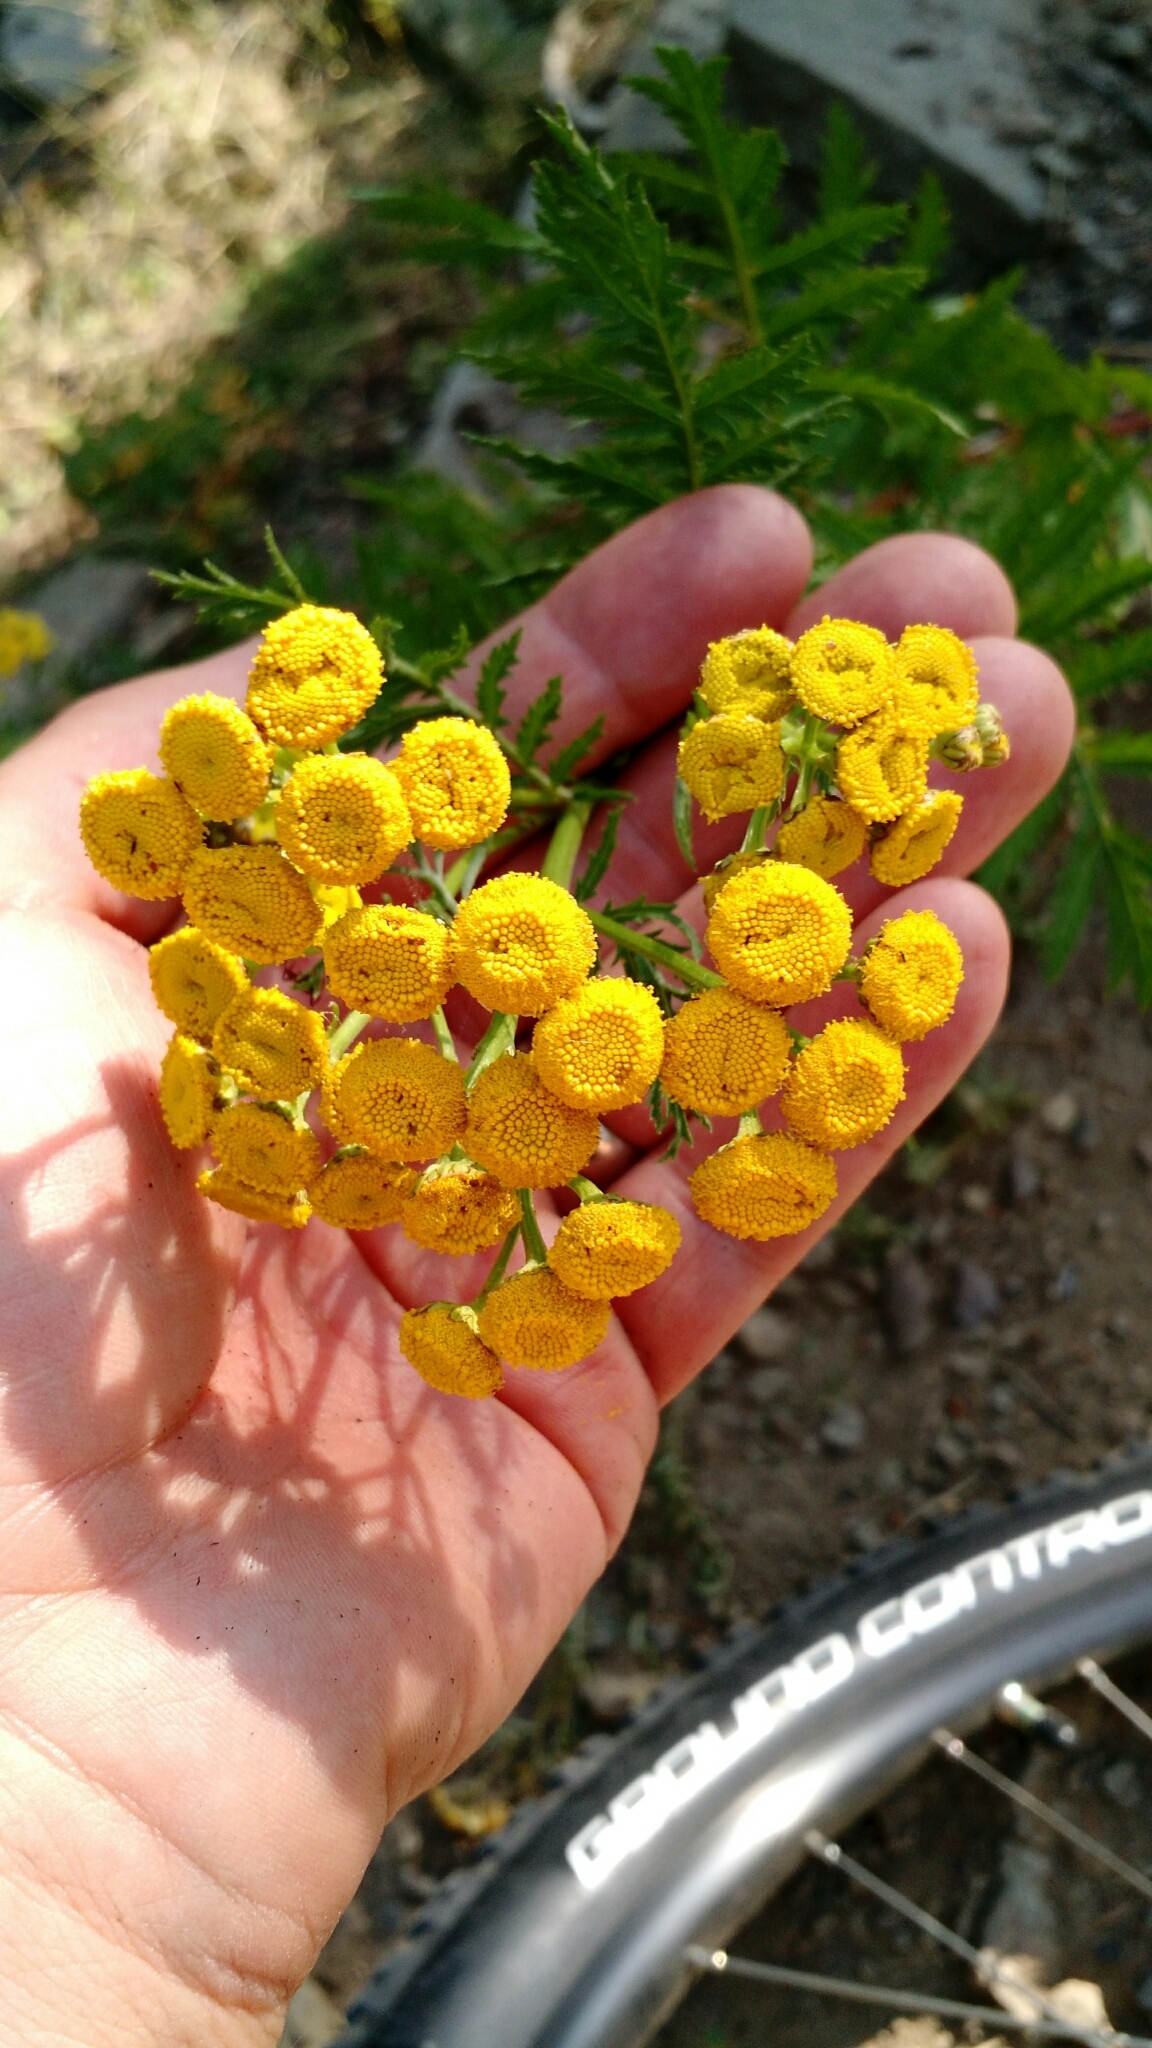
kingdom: Plantae
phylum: Tracheophyta
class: Magnoliopsida
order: Asterales
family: Asteraceae
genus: Tanacetum
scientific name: Tanacetum vulgare
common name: Common tansy
